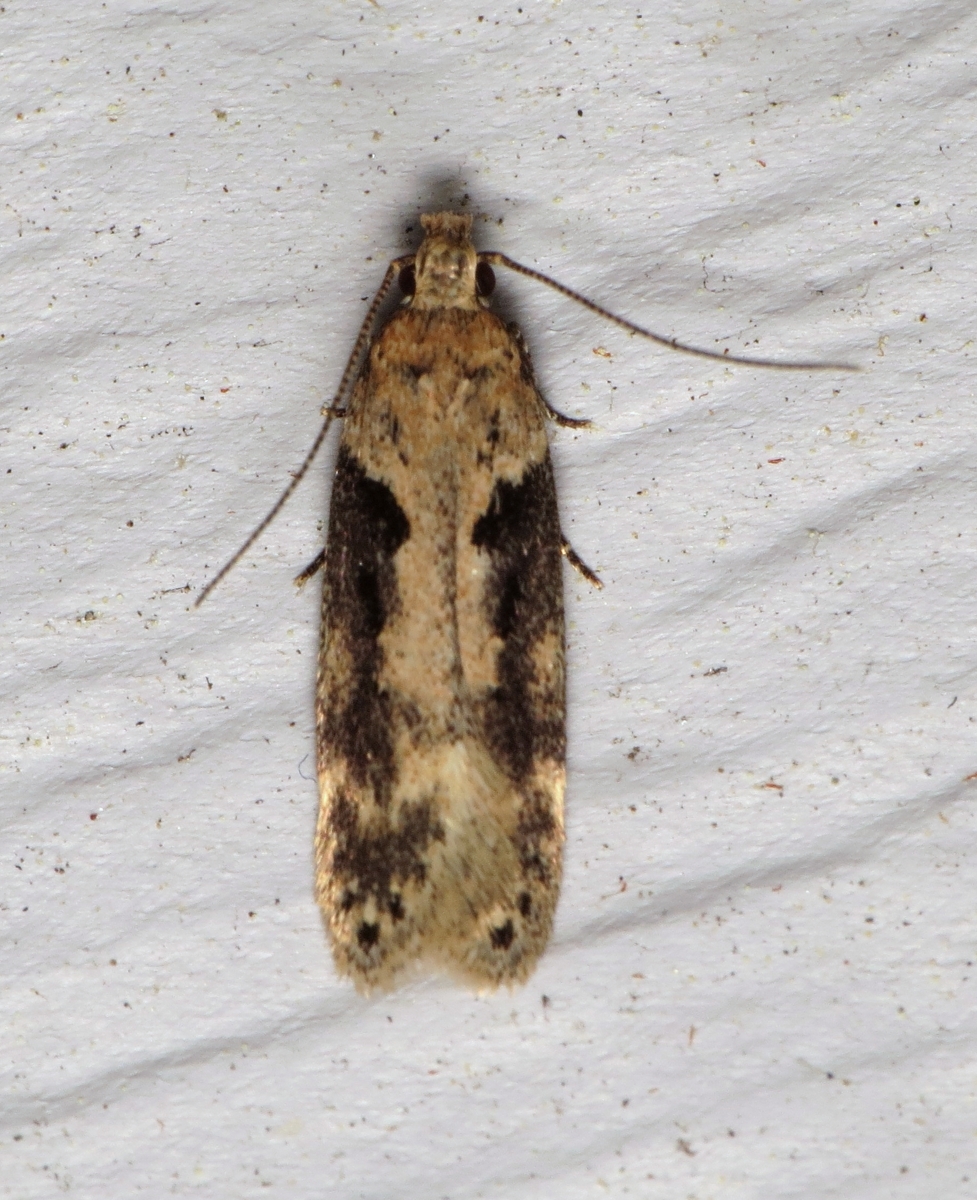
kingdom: Animalia
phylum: Arthropoda
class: Insecta
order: Lepidoptera
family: Gelechiidae
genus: Chionodes
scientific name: Chionodes mediofuscella
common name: Black-smudged chionodes moth
